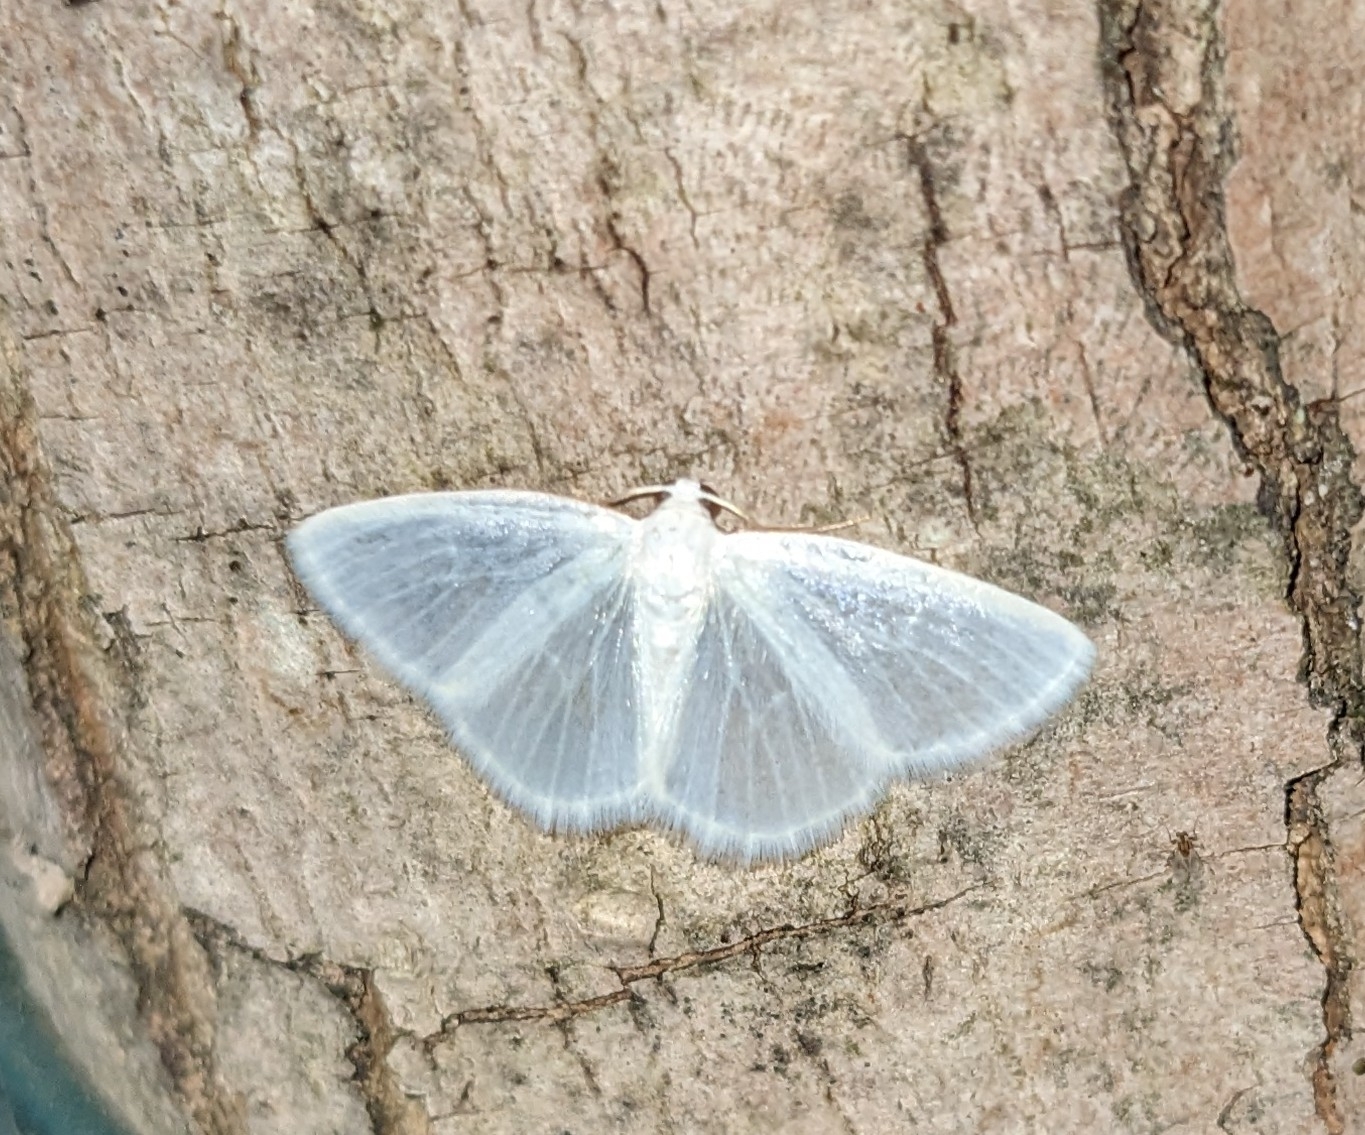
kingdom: Animalia
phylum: Arthropoda
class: Insecta
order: Lepidoptera
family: Geometridae
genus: Lomographa
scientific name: Lomographa vestaliata
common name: White spring moth
